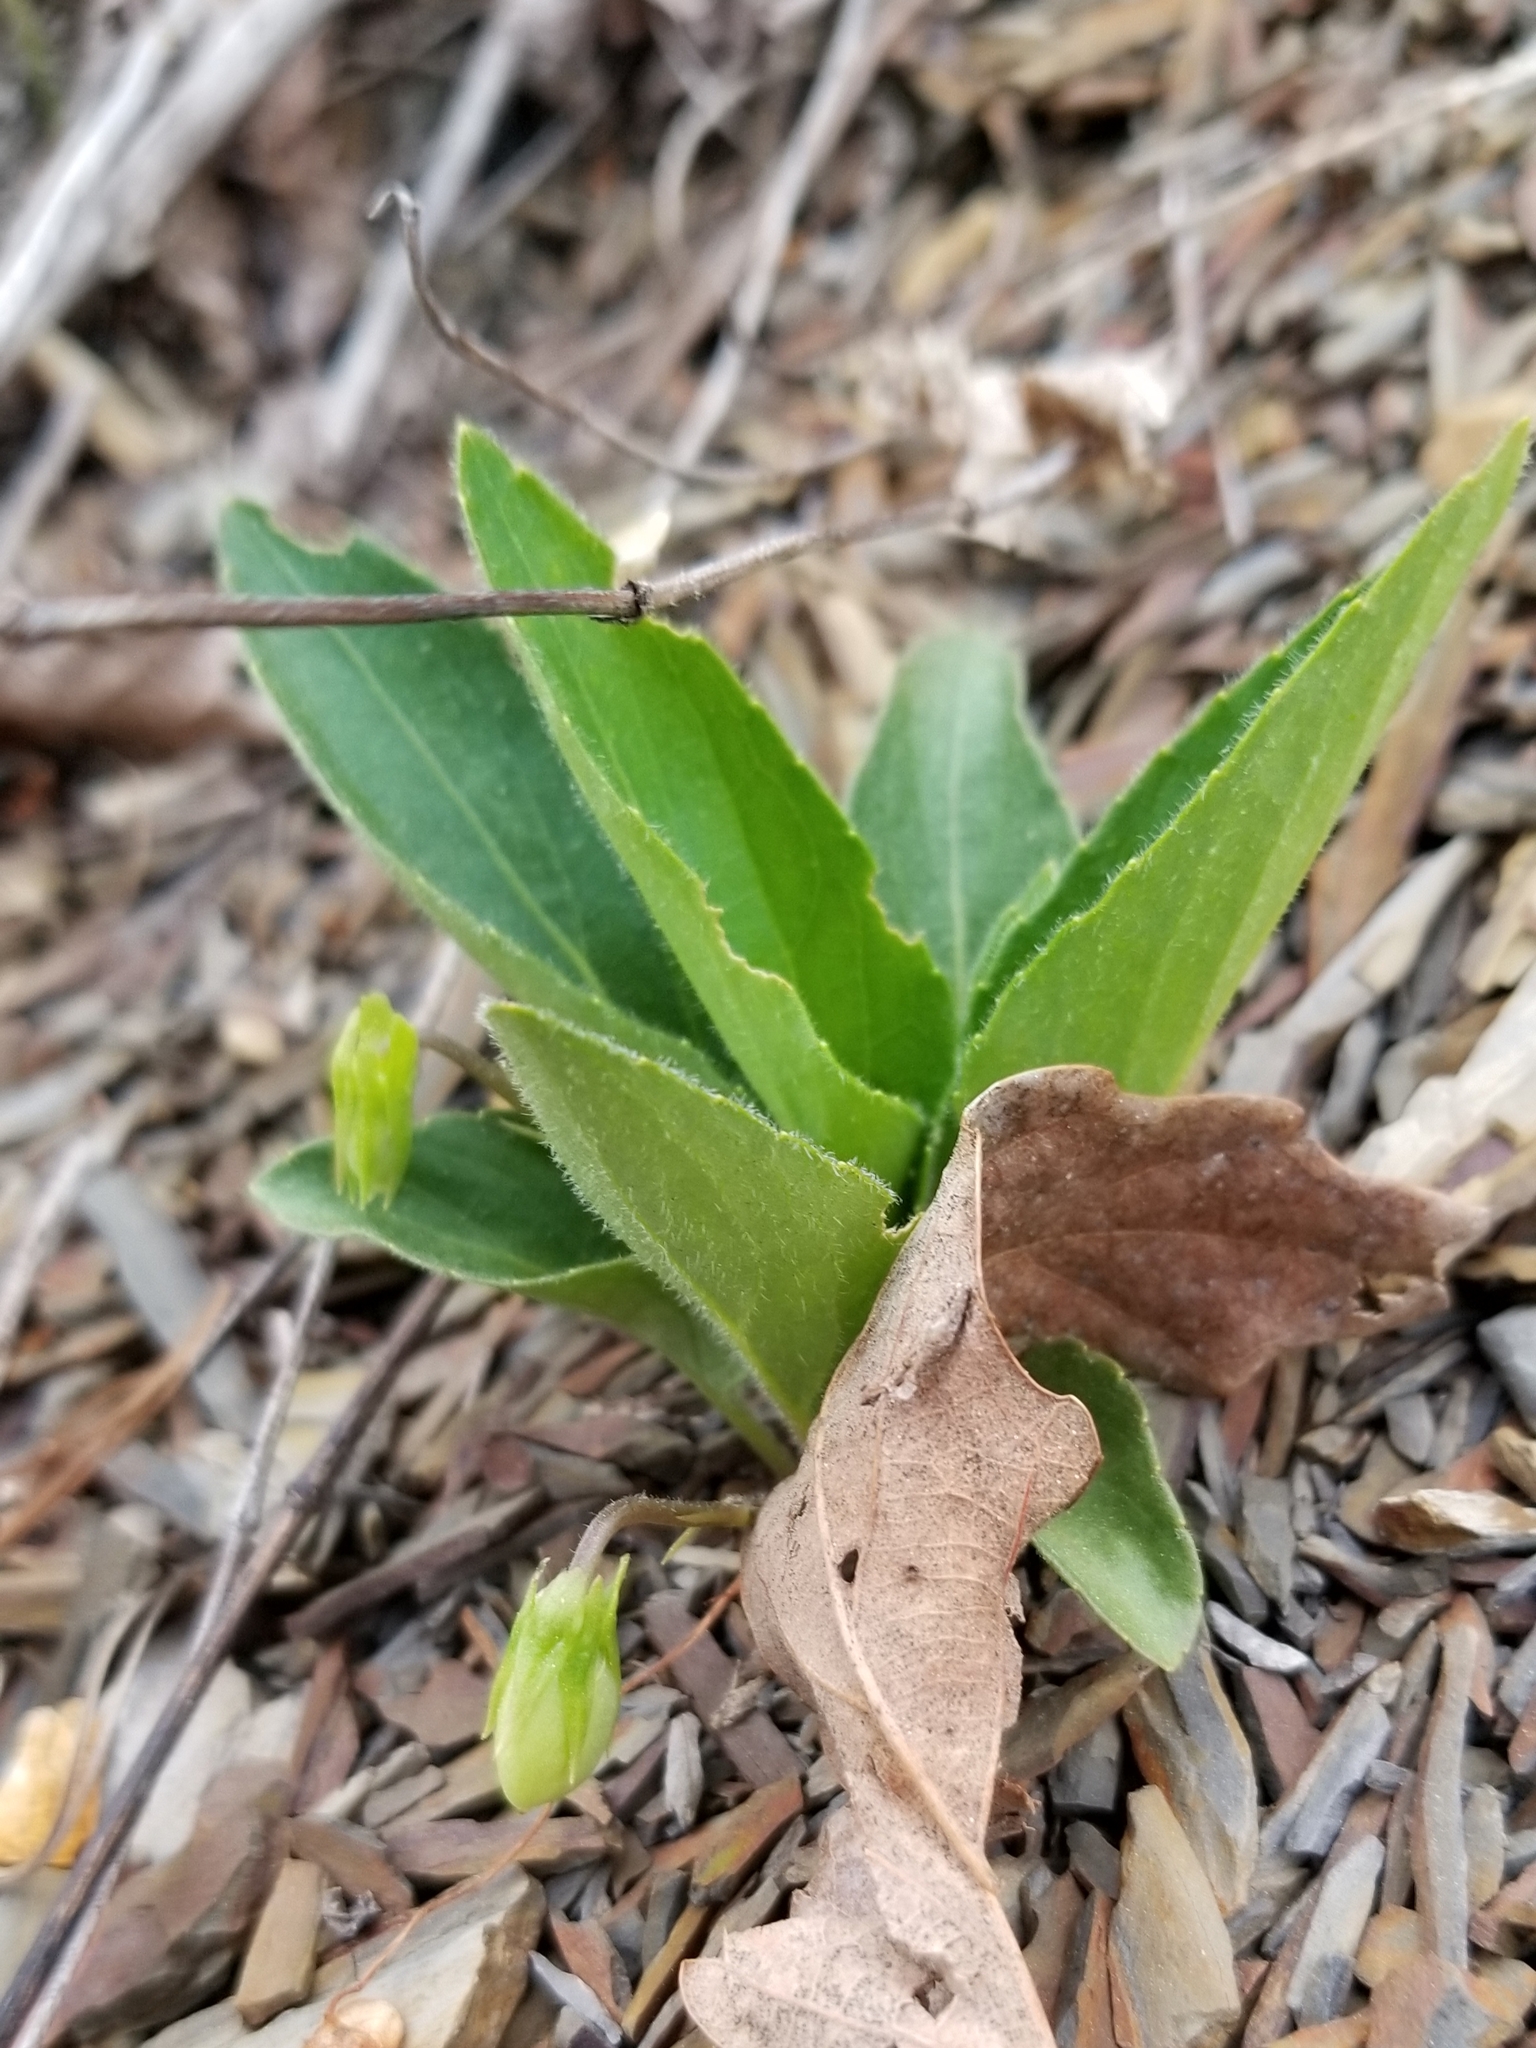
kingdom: Plantae
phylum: Tracheophyta
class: Magnoliopsida
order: Malpighiales
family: Violaceae
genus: Viola
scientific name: Viola fimbriatula
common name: Sand violet
